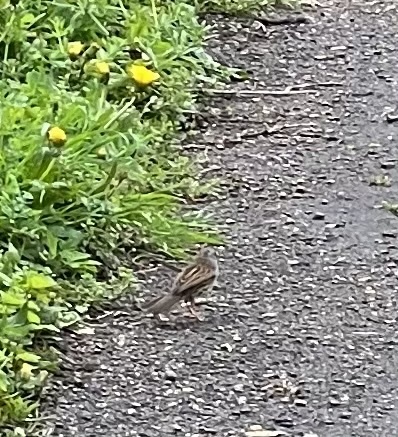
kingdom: Animalia
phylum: Chordata
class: Aves
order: Passeriformes
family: Prunellidae
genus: Prunella
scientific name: Prunella modularis
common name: Dunnock
